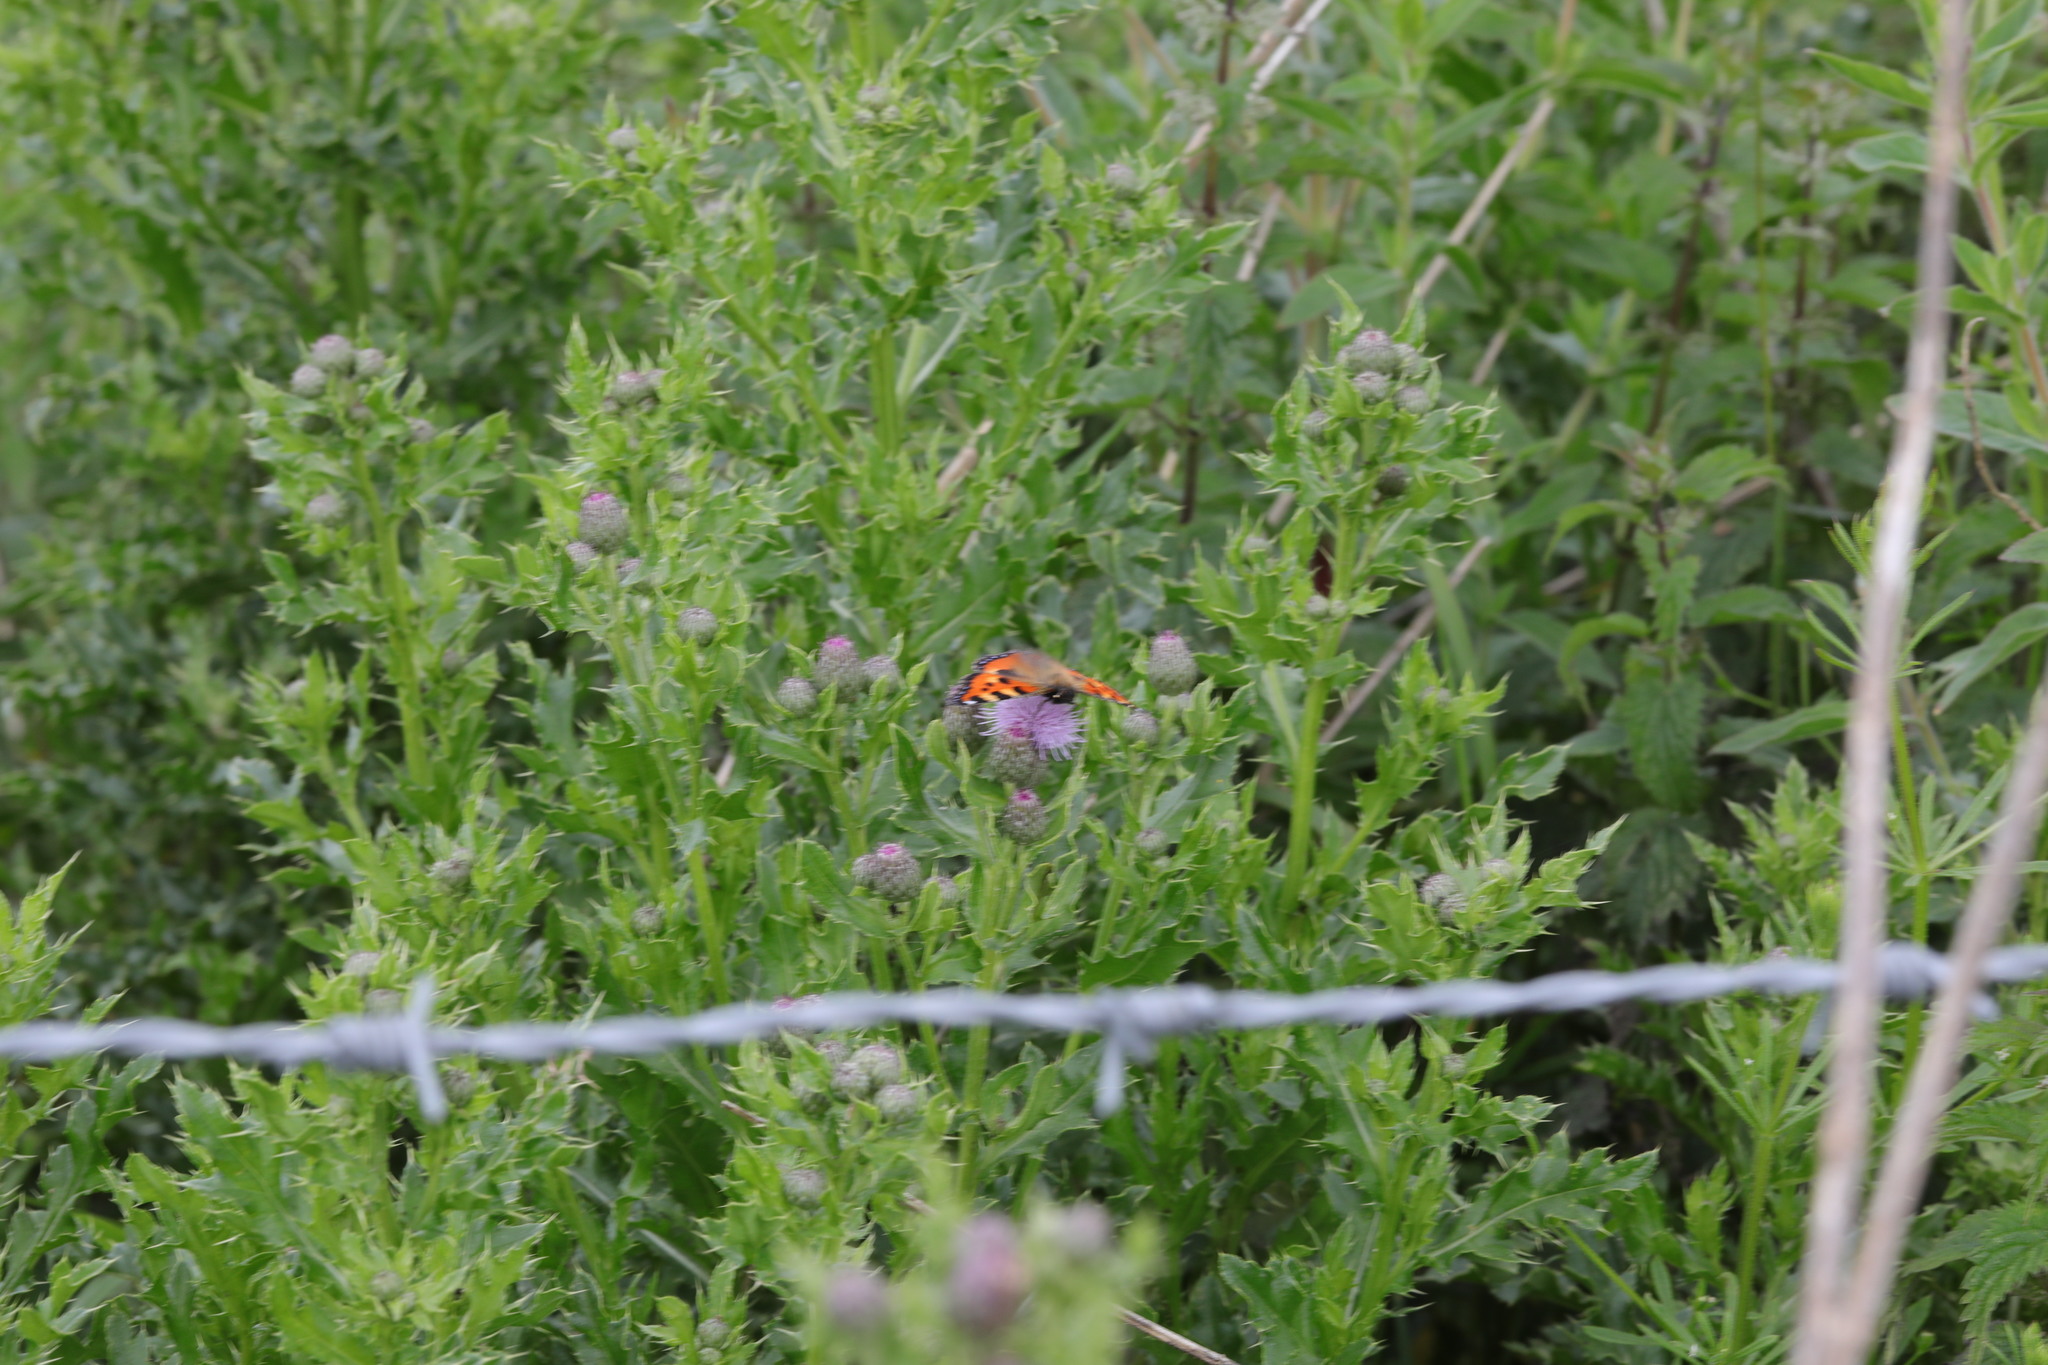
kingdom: Animalia
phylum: Arthropoda
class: Insecta
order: Lepidoptera
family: Nymphalidae
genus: Aglais
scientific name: Aglais urticae
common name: Small tortoiseshell
